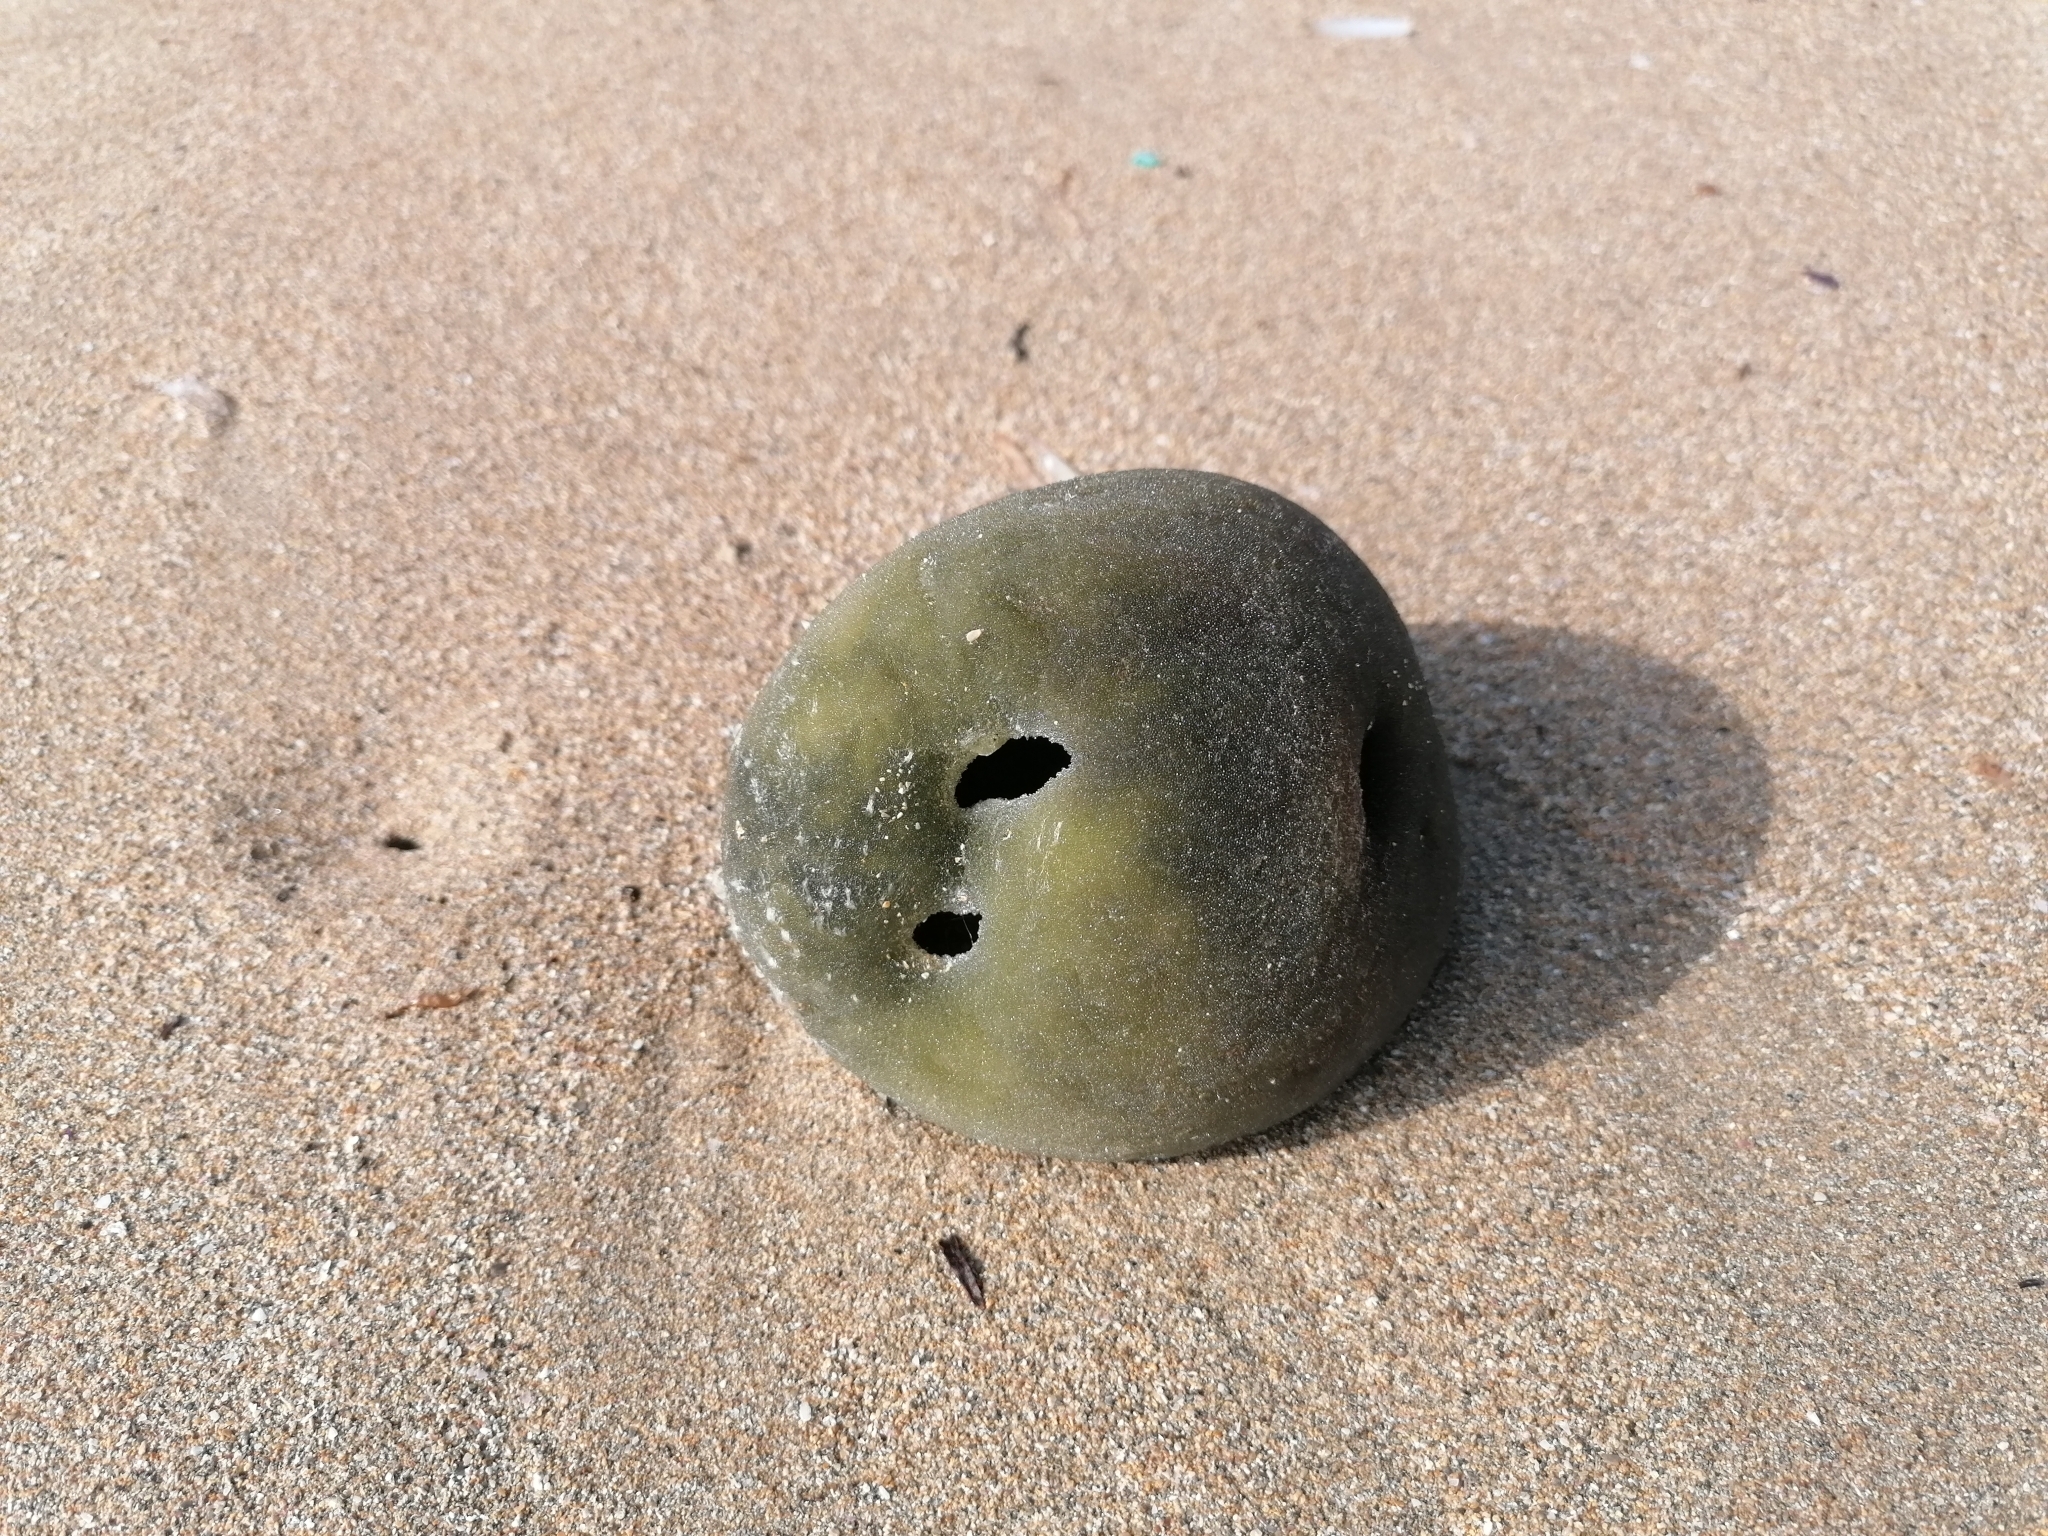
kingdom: Plantae
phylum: Chlorophyta
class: Ulvophyceae
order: Bryopsidales
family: Codiaceae
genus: Codium
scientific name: Codium bursa
